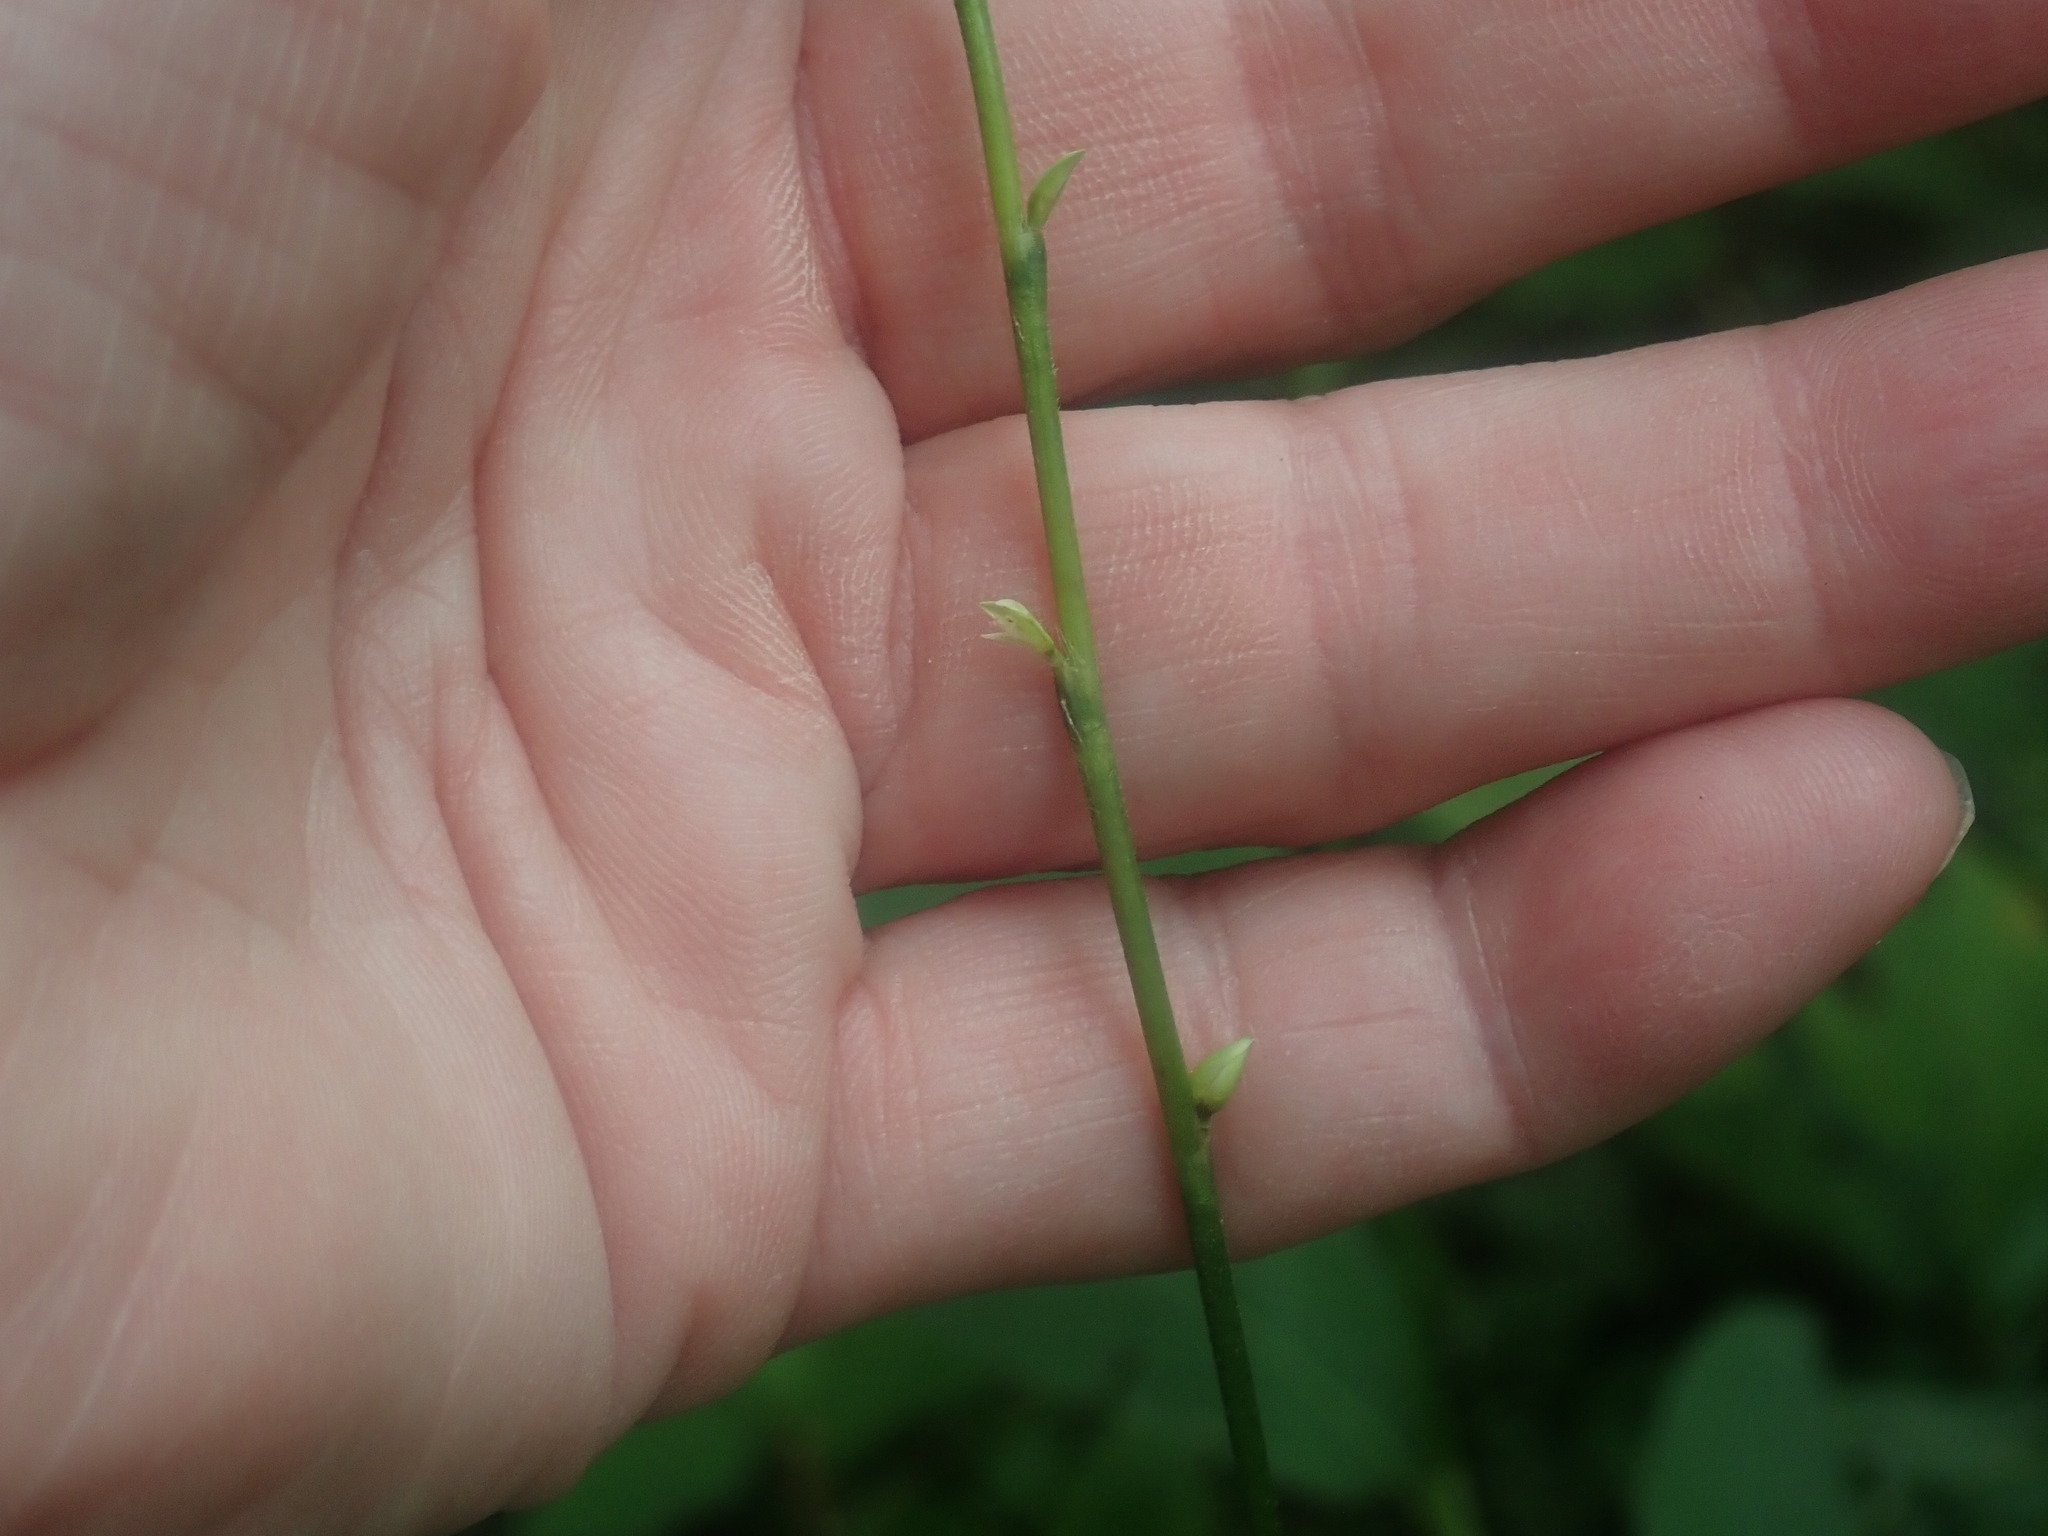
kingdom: Plantae
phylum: Tracheophyta
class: Magnoliopsida
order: Caryophyllales
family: Polygonaceae
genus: Persicaria
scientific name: Persicaria virginiana
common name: Jumpseed
